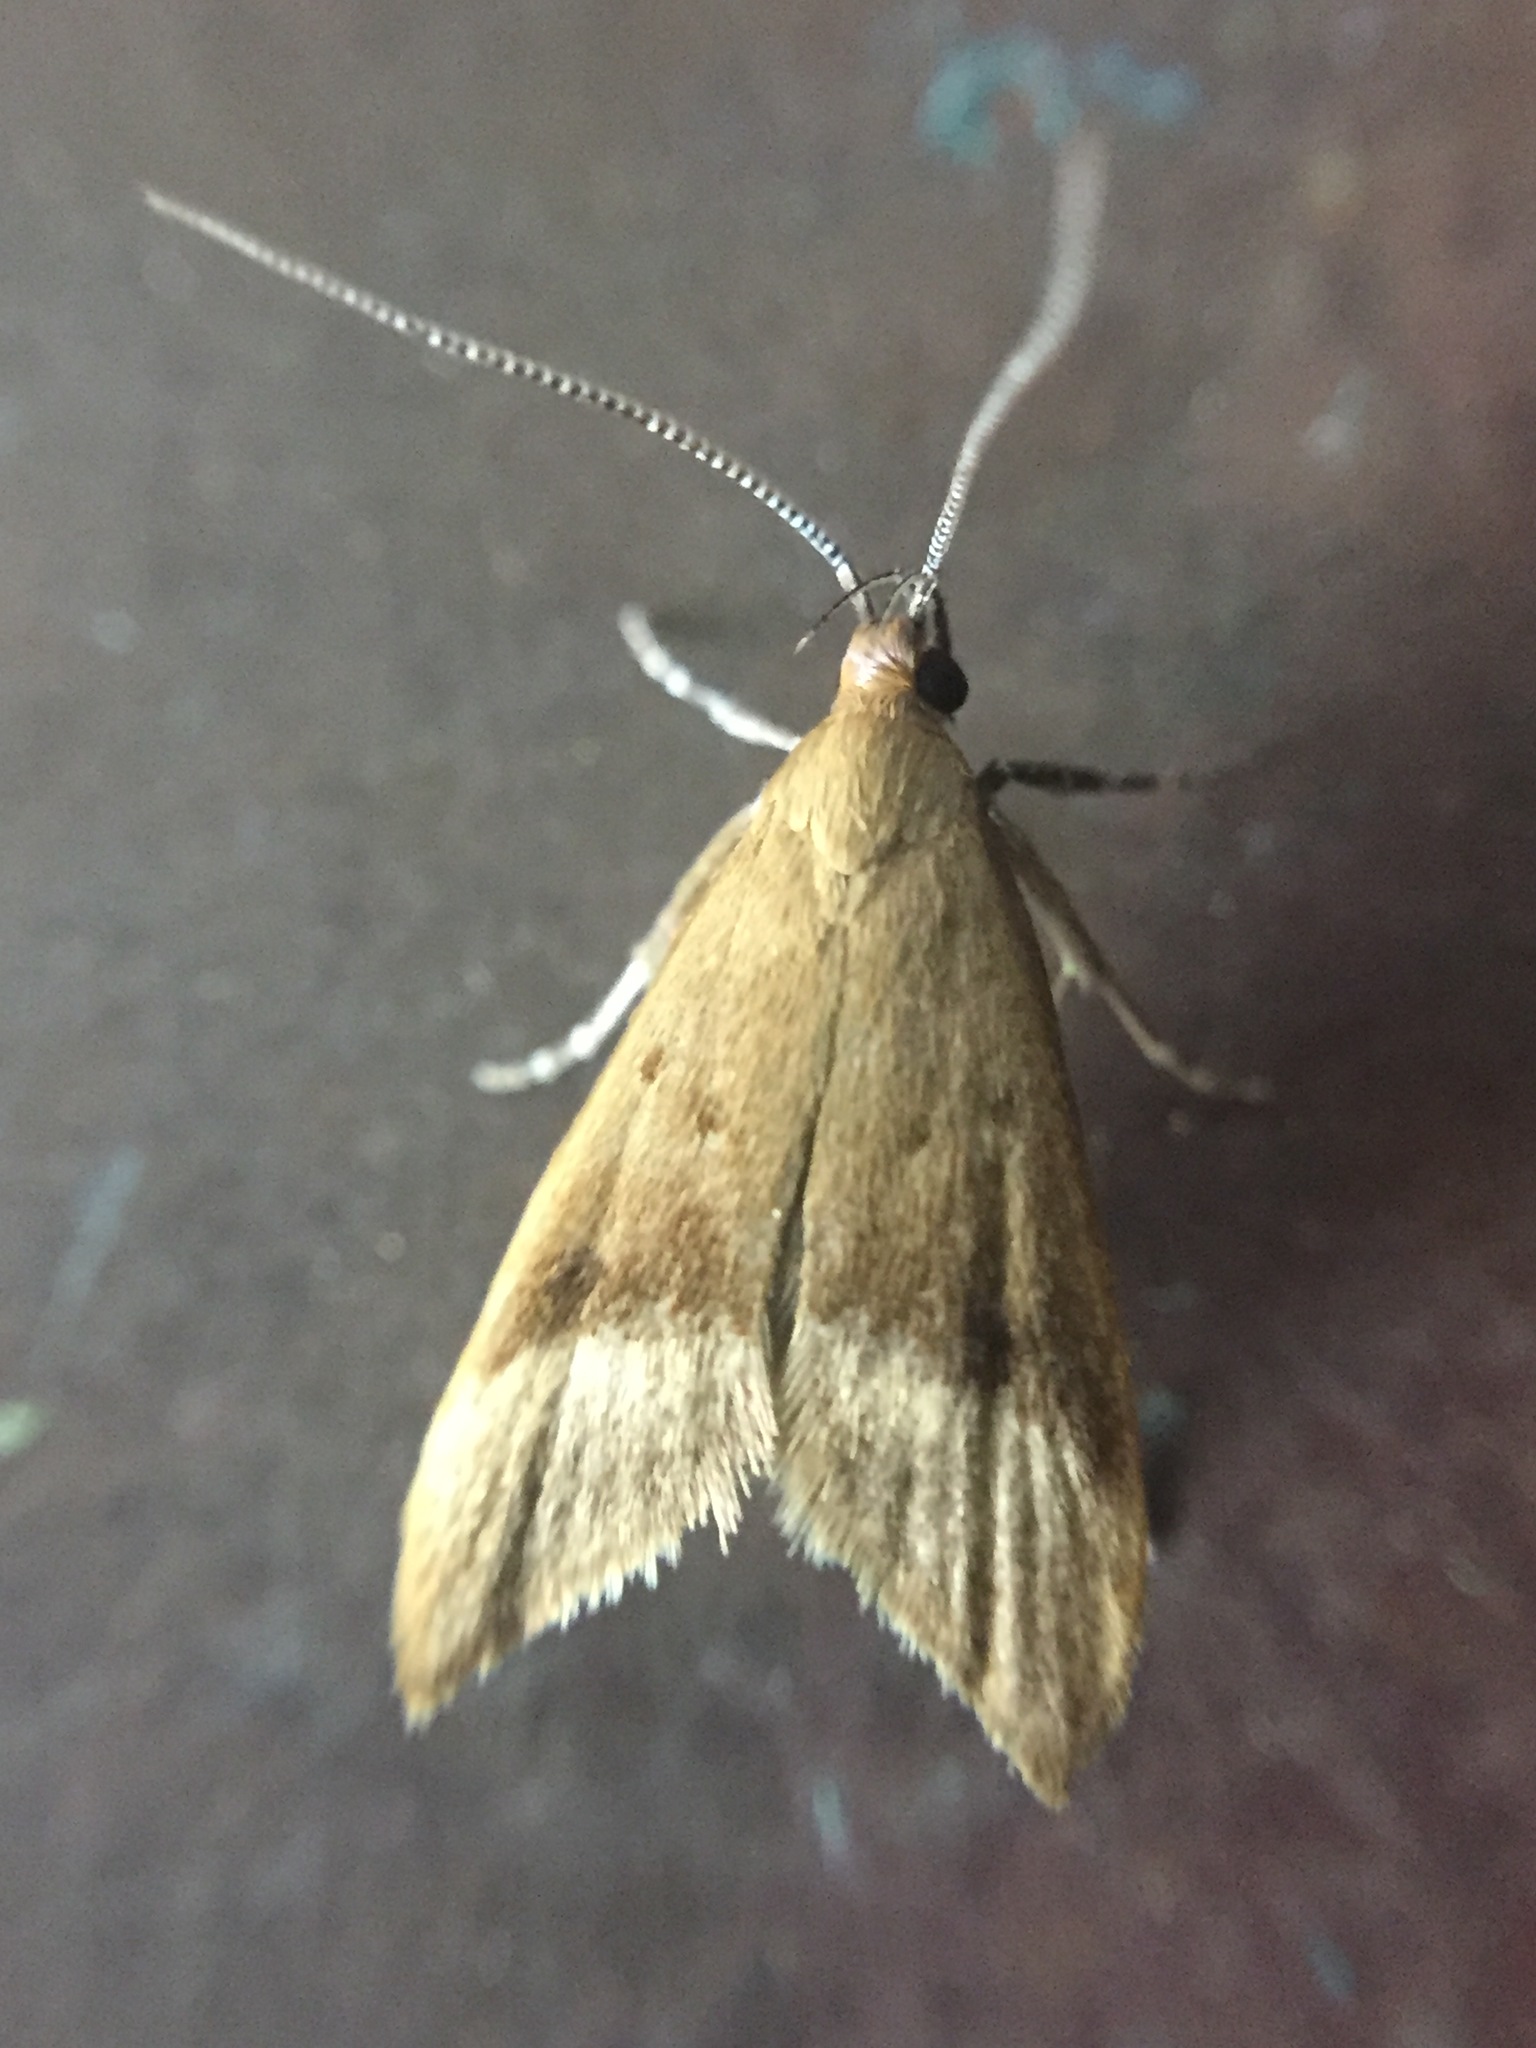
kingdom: Animalia
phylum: Arthropoda
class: Insecta
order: Lepidoptera
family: Oecophoridae
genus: Gymnobathra
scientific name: Gymnobathra hyetodes
